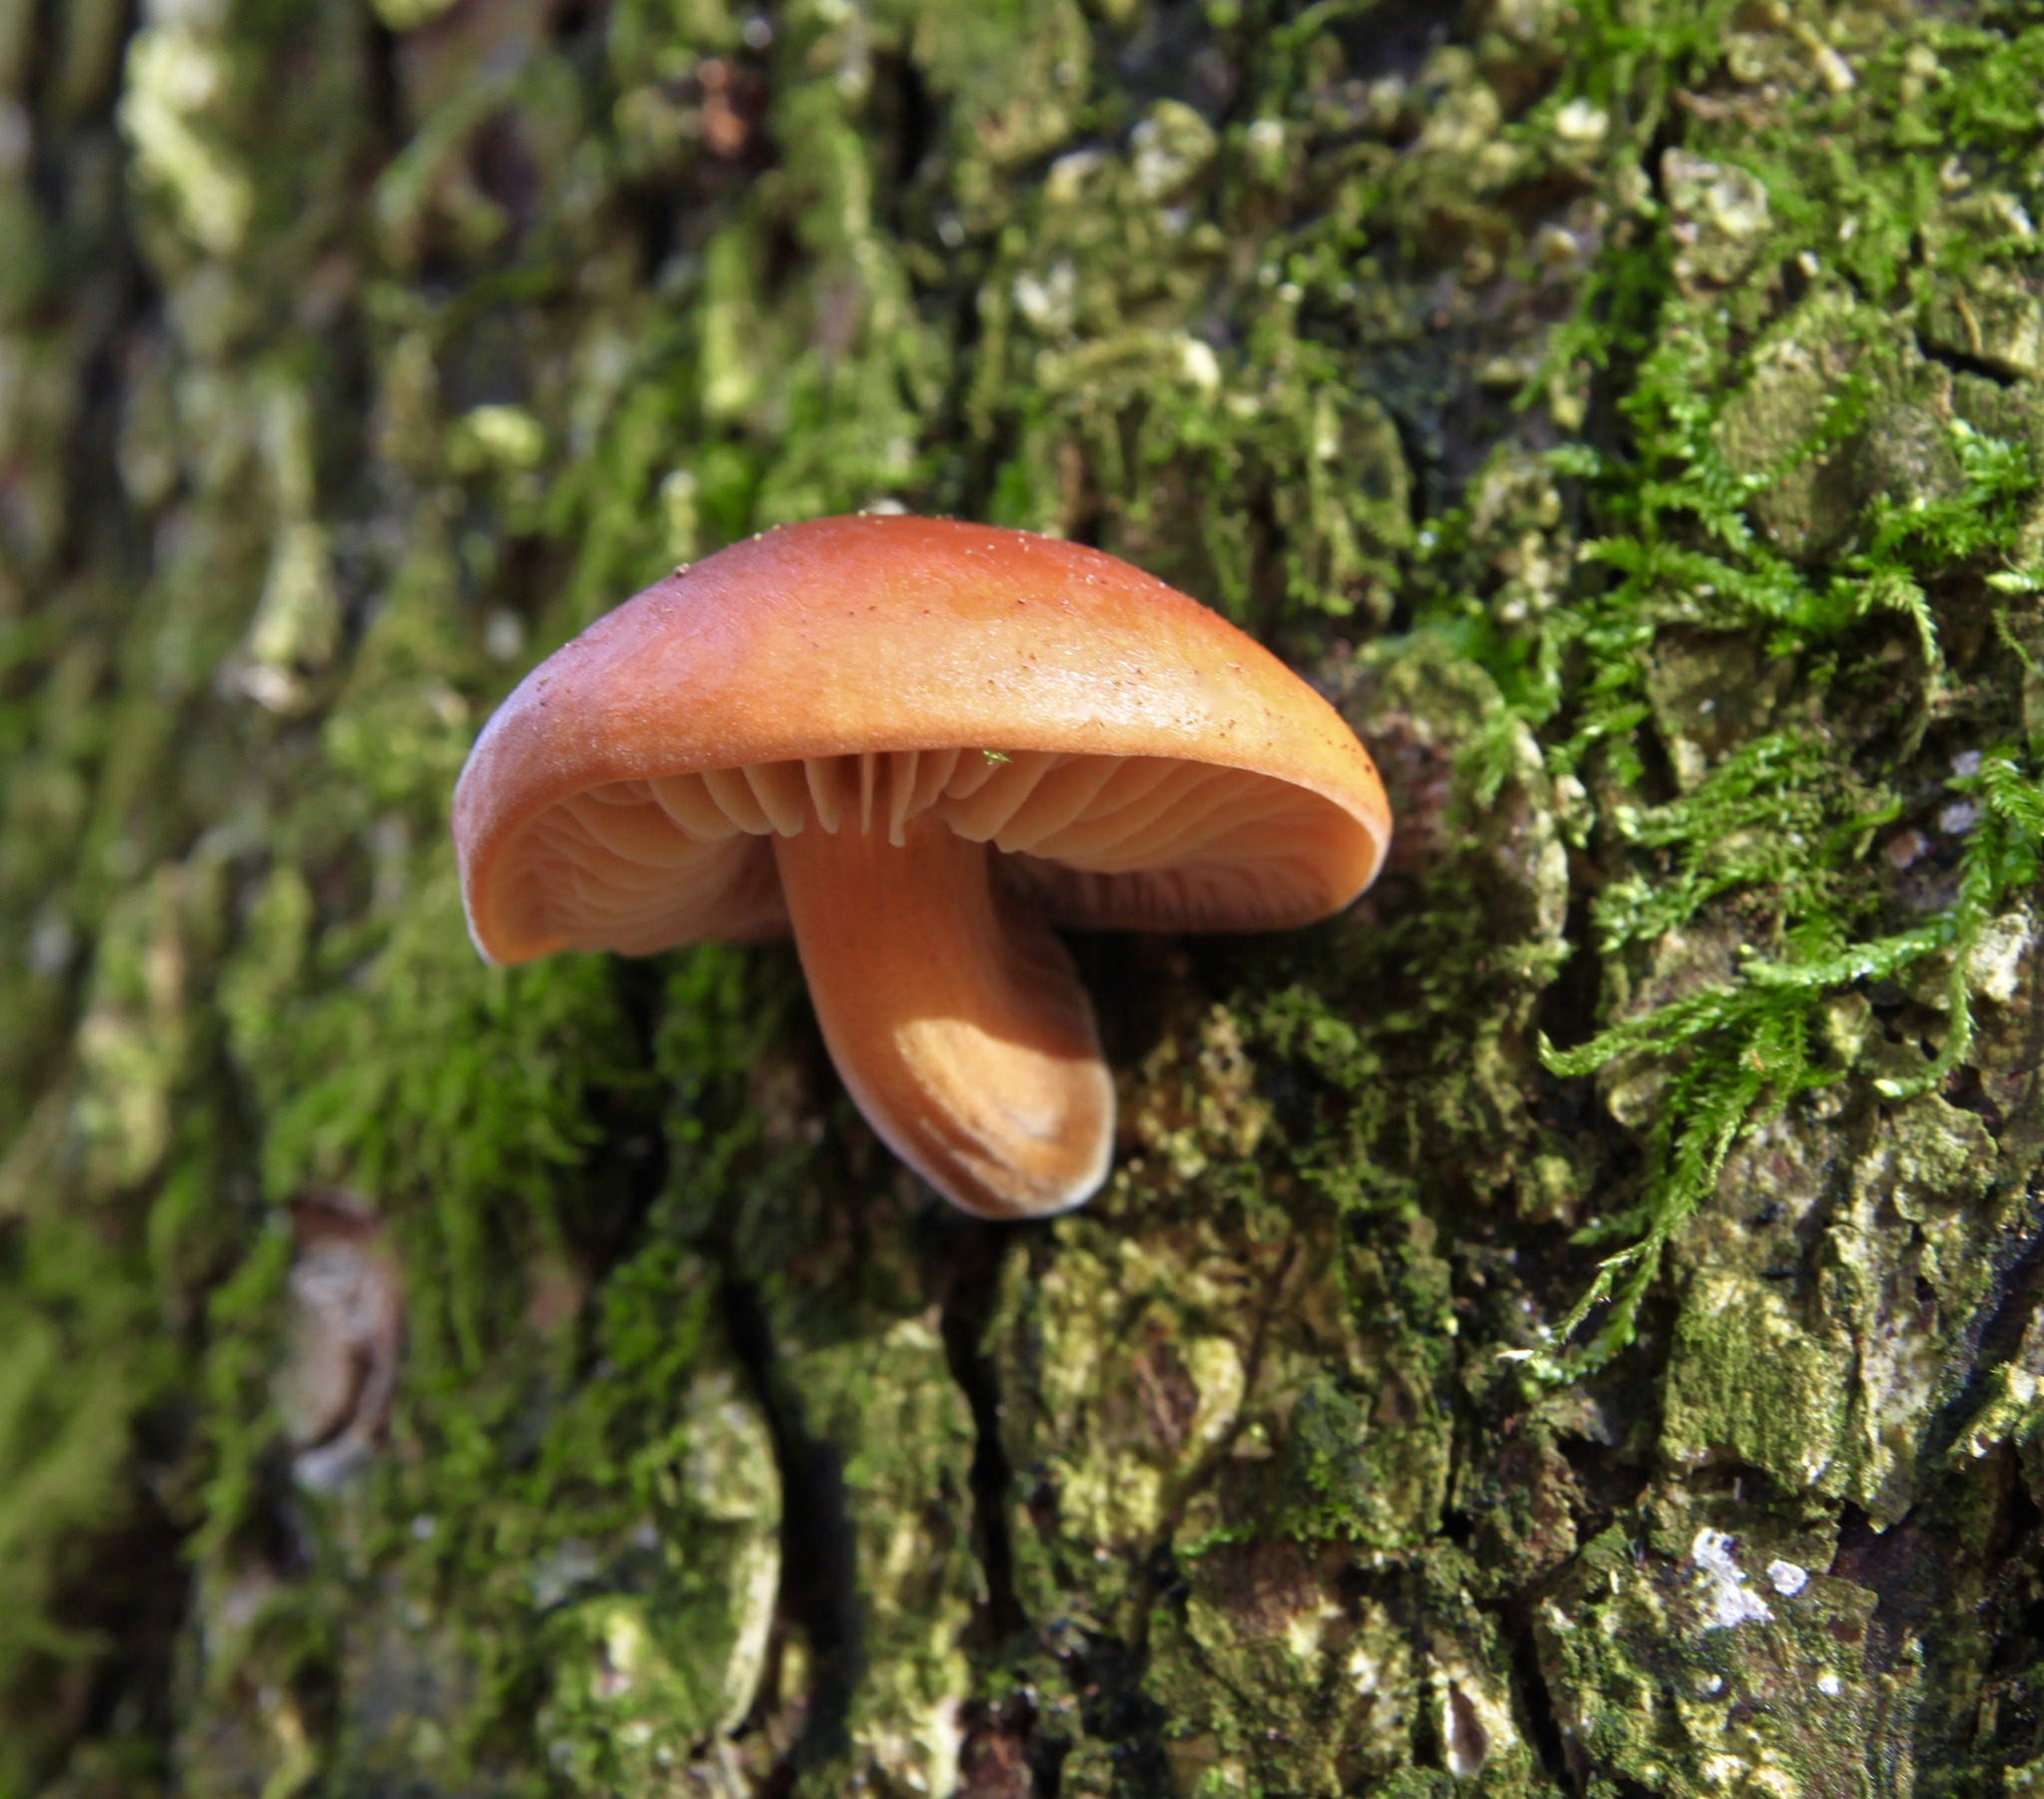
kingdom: Fungi
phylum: Basidiomycota
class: Agaricomycetes
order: Agaricales
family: Physalacriaceae
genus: Flammulina
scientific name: Flammulina velutipes
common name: Velvet shank
